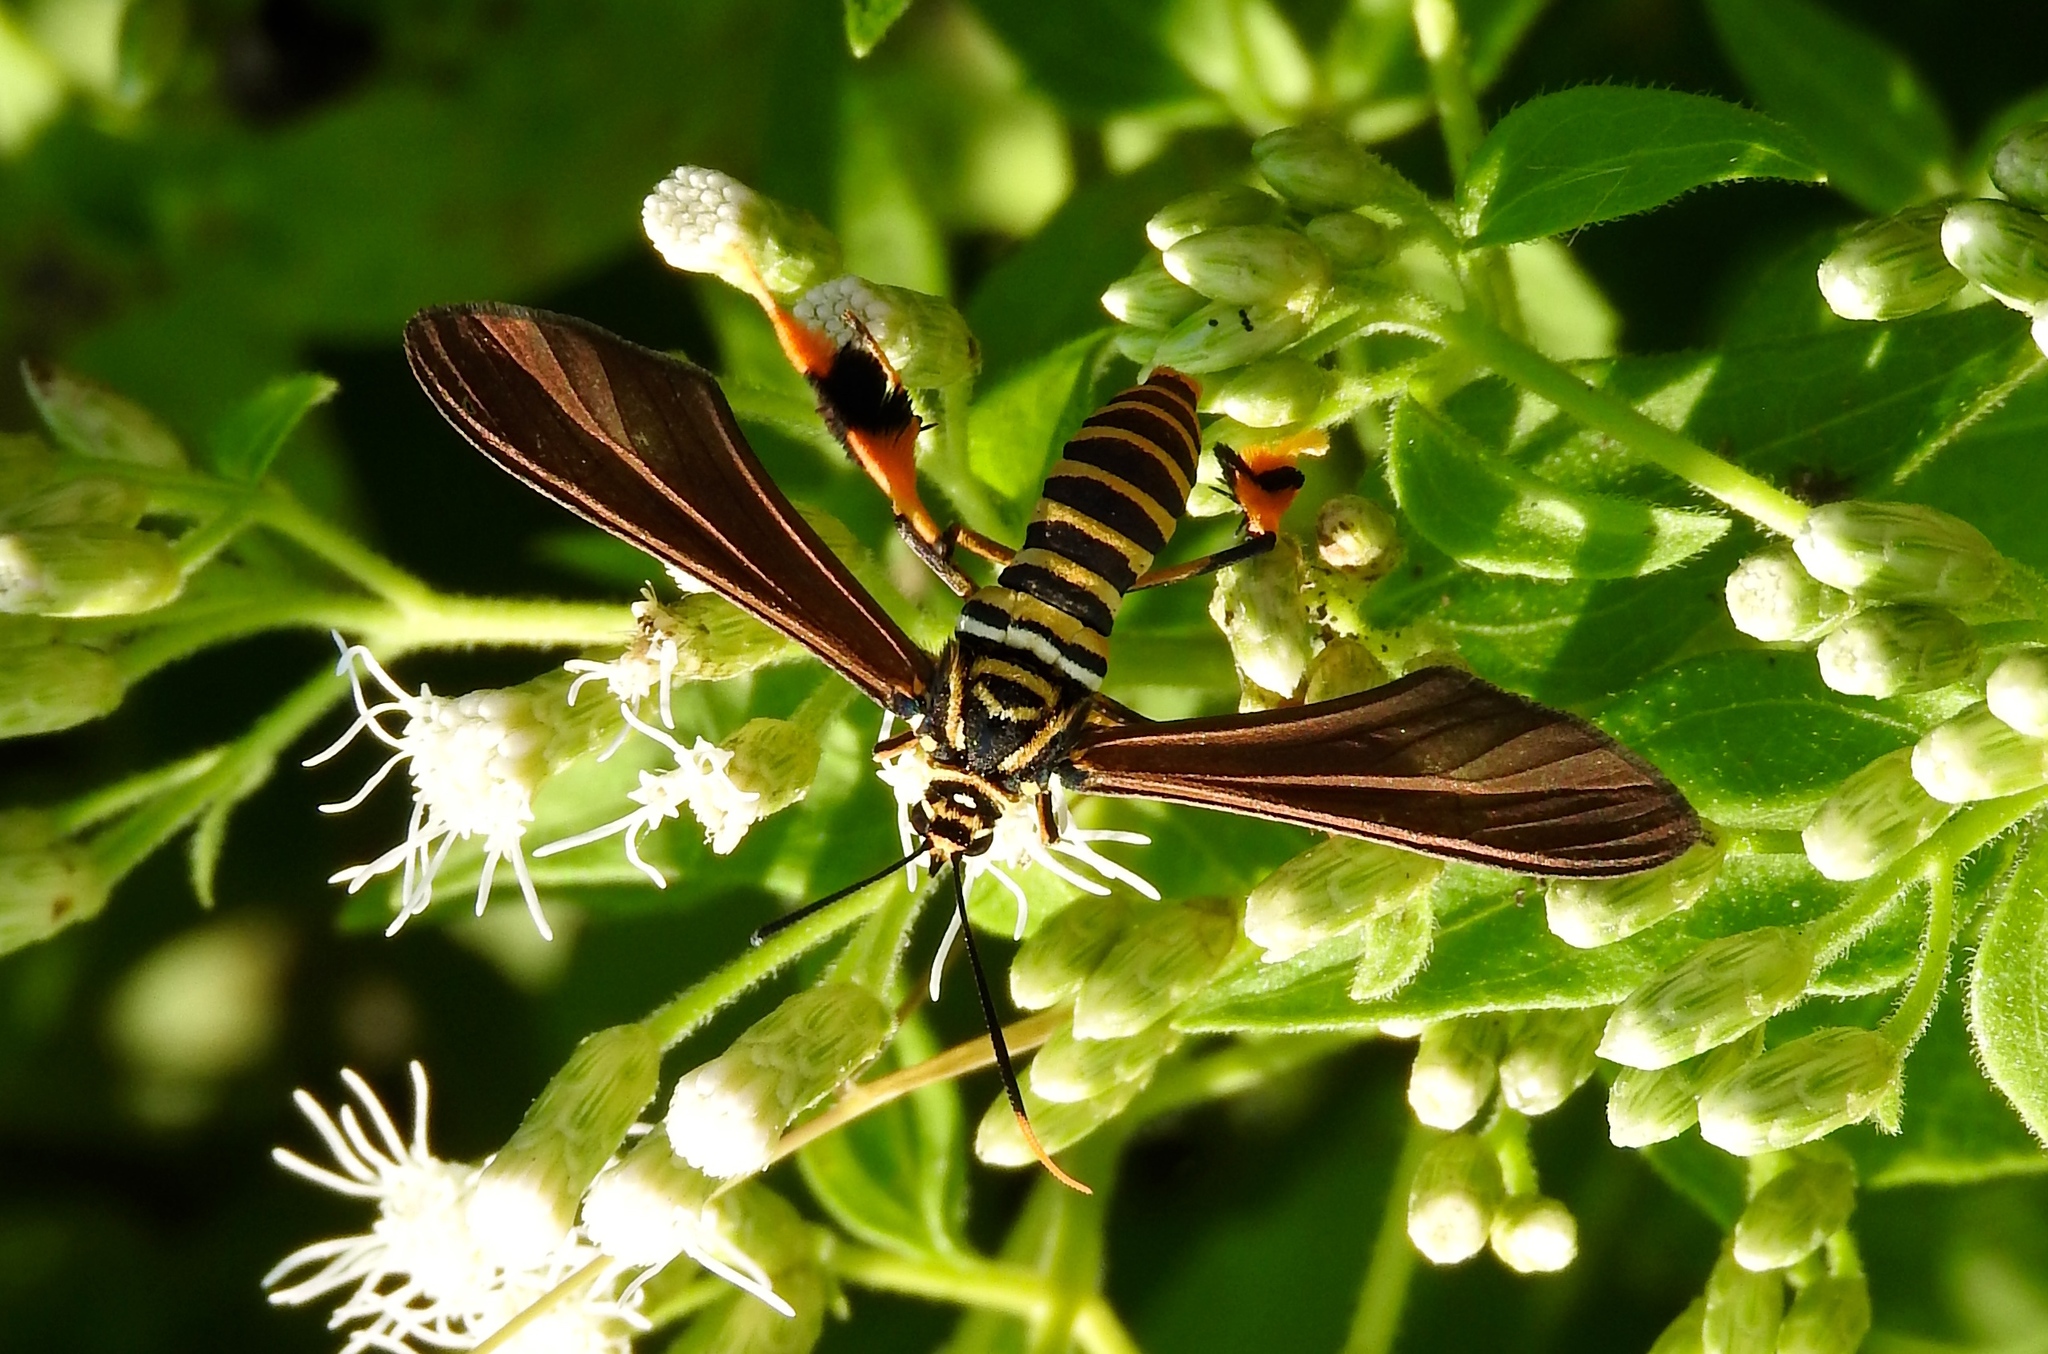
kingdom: Animalia
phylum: Arthropoda
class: Insecta
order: Lepidoptera
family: Erebidae
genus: Horama
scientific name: Horama panthalon
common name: Texas wasp moth
